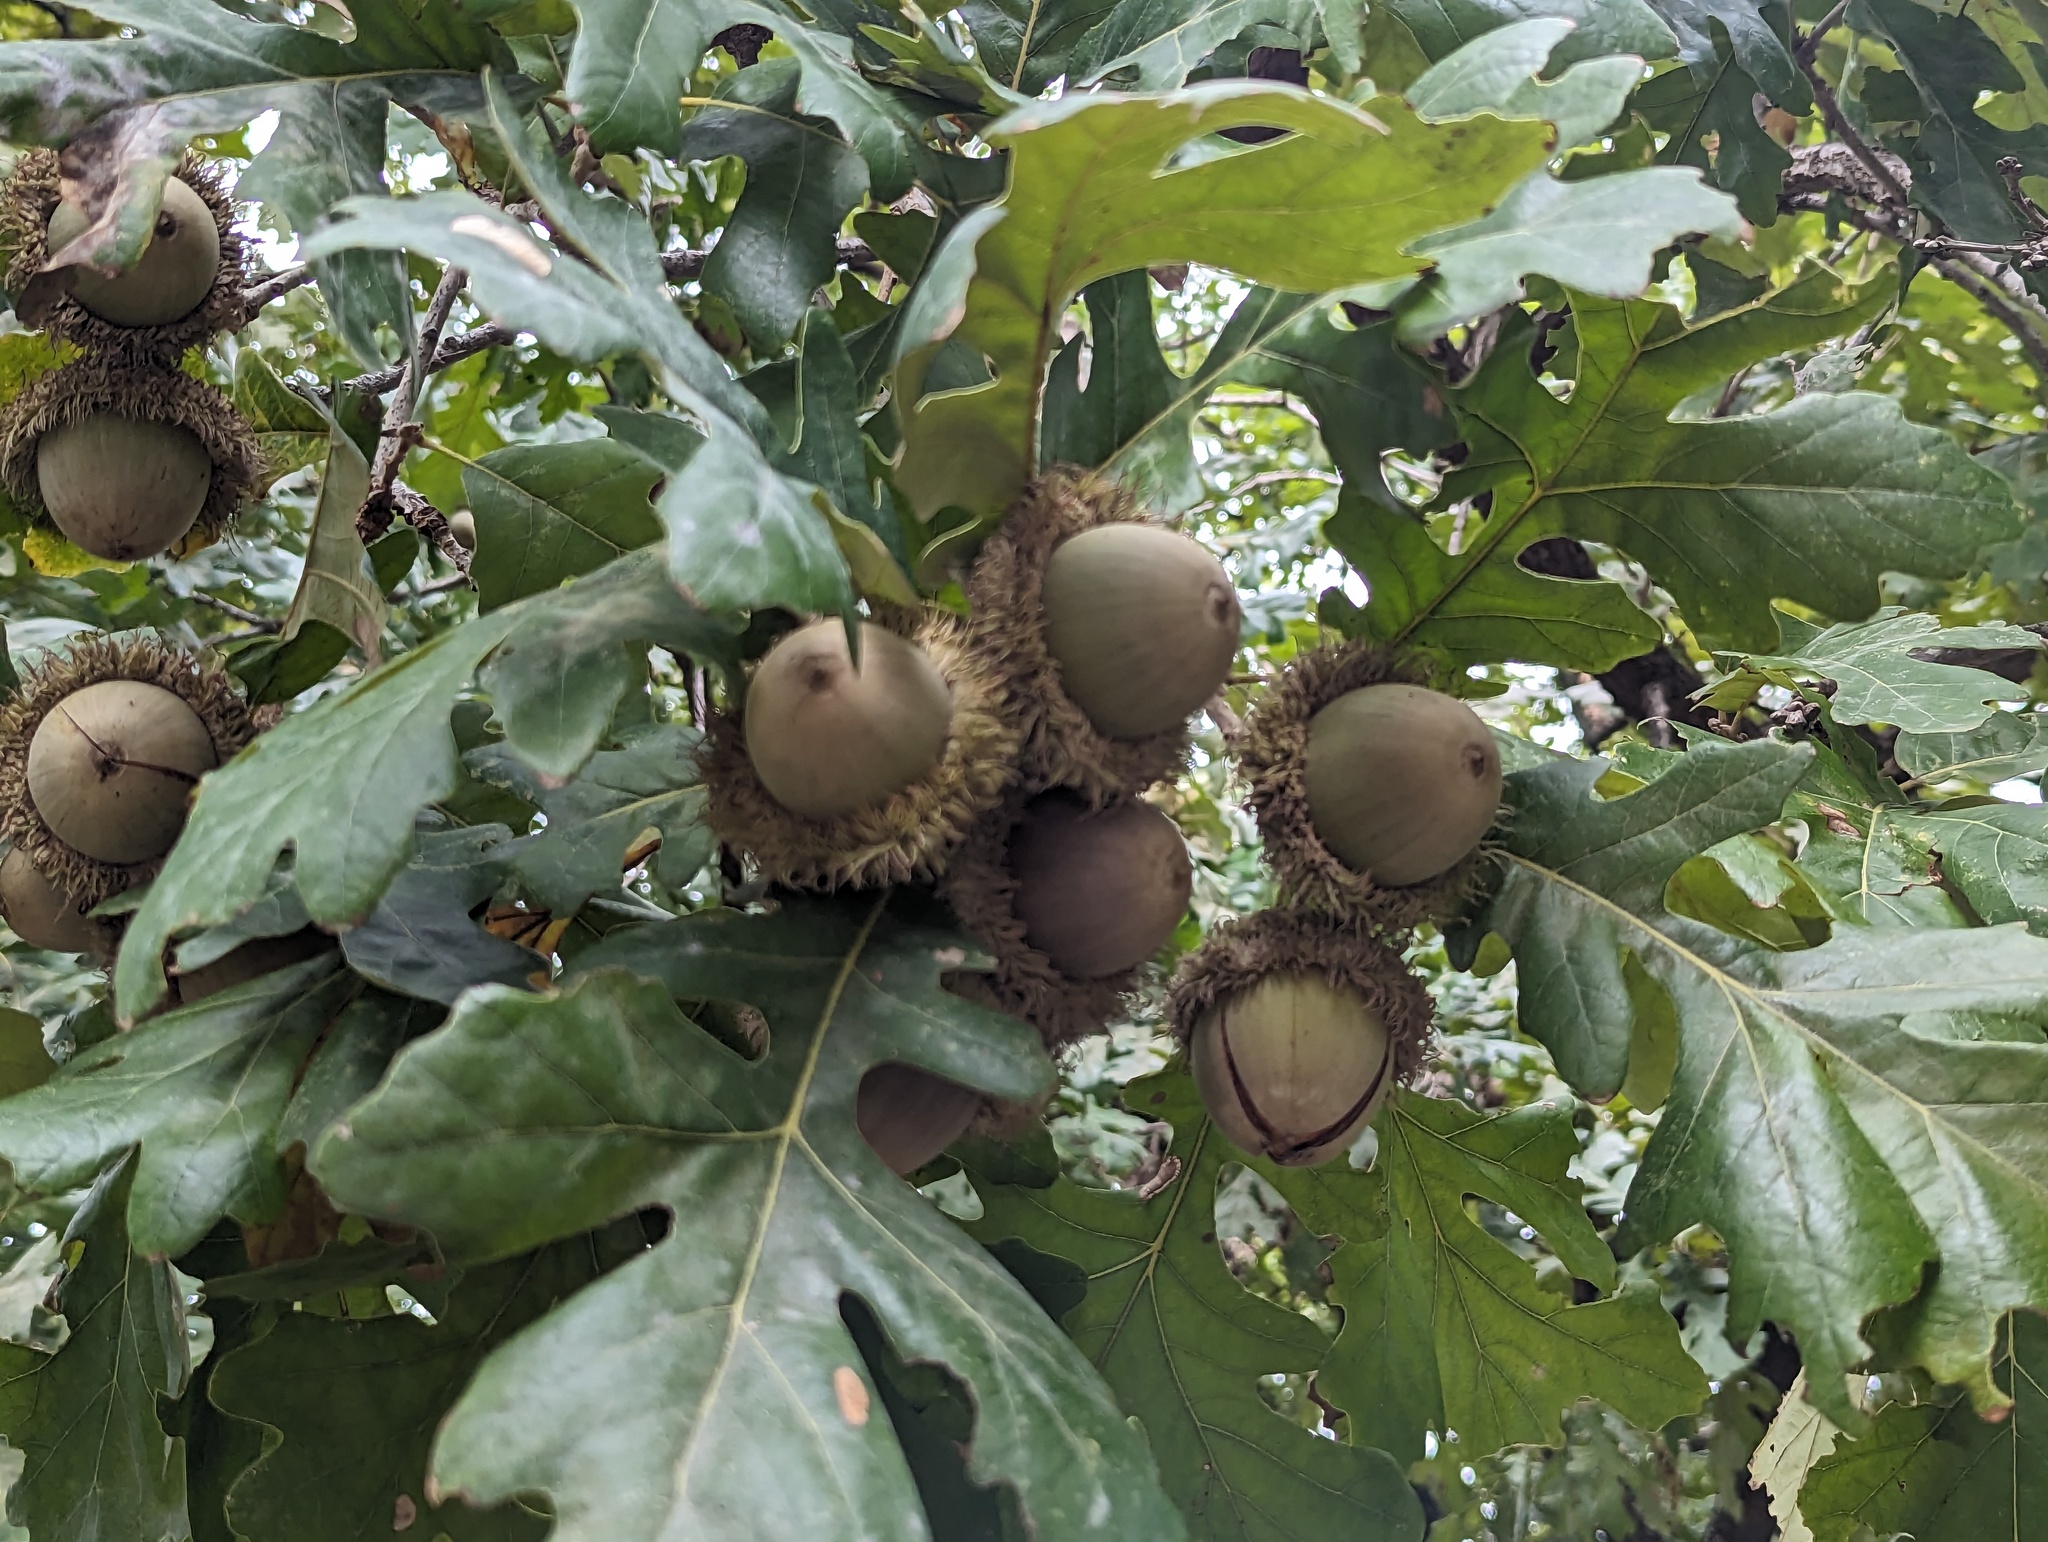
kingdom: Plantae
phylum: Tracheophyta
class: Magnoliopsida
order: Fagales
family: Fagaceae
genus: Quercus
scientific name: Quercus macrocarpa
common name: Bur oak
